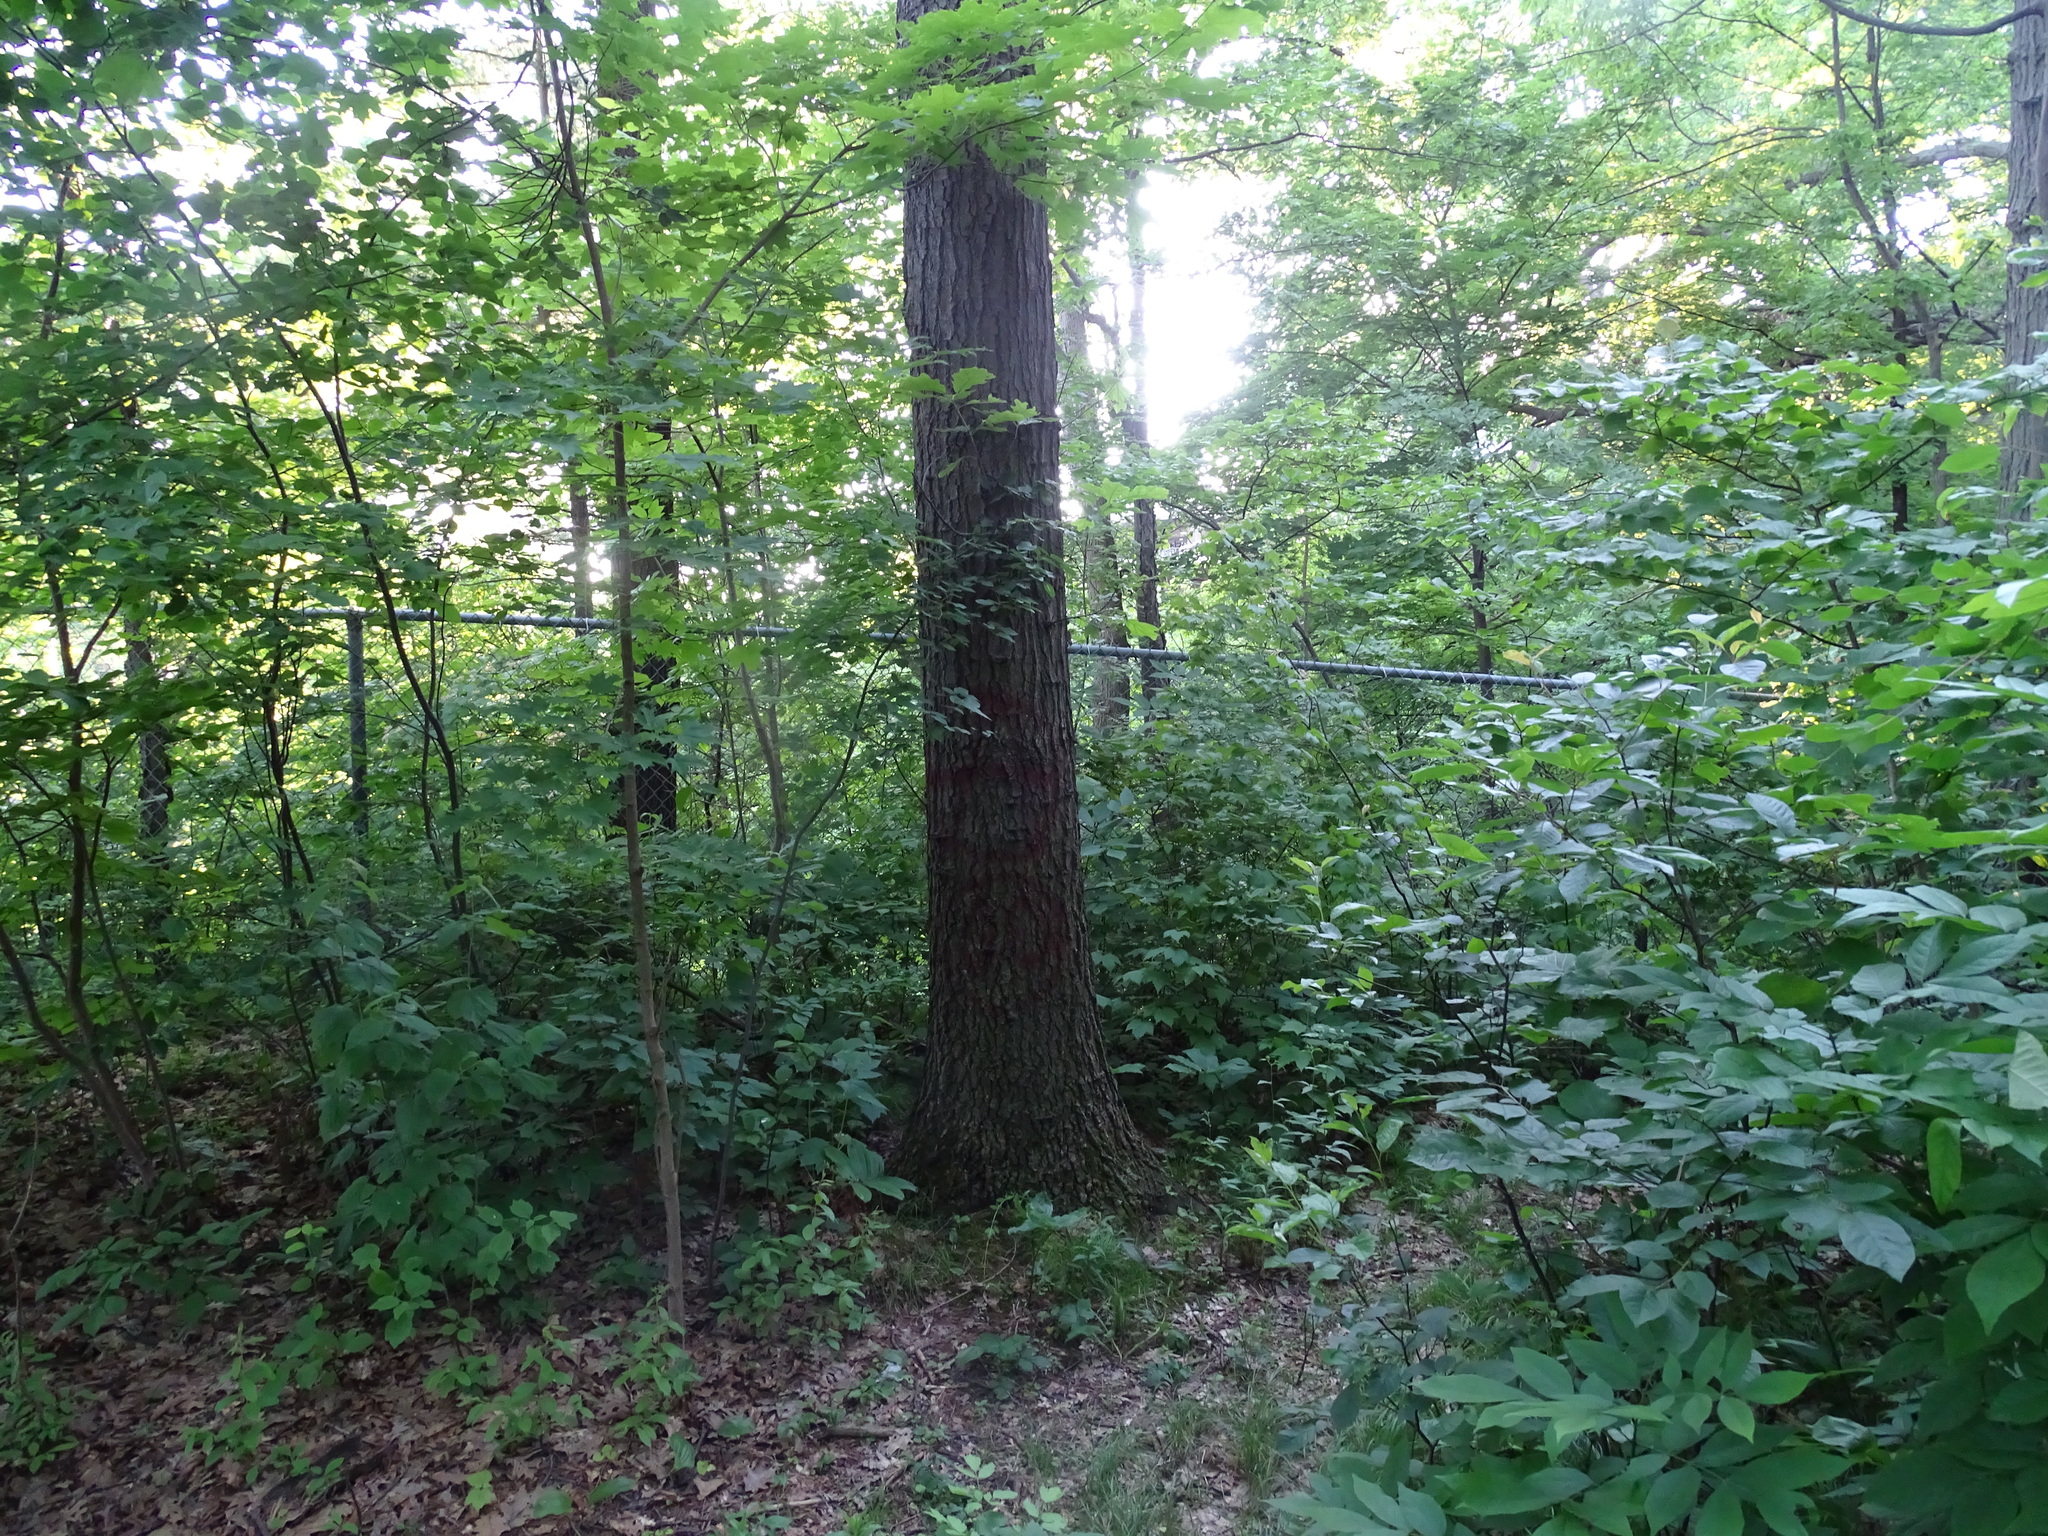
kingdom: Plantae
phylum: Tracheophyta
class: Magnoliopsida
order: Fagales
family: Fagaceae
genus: Quercus
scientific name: Quercus velutina
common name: Black oak
